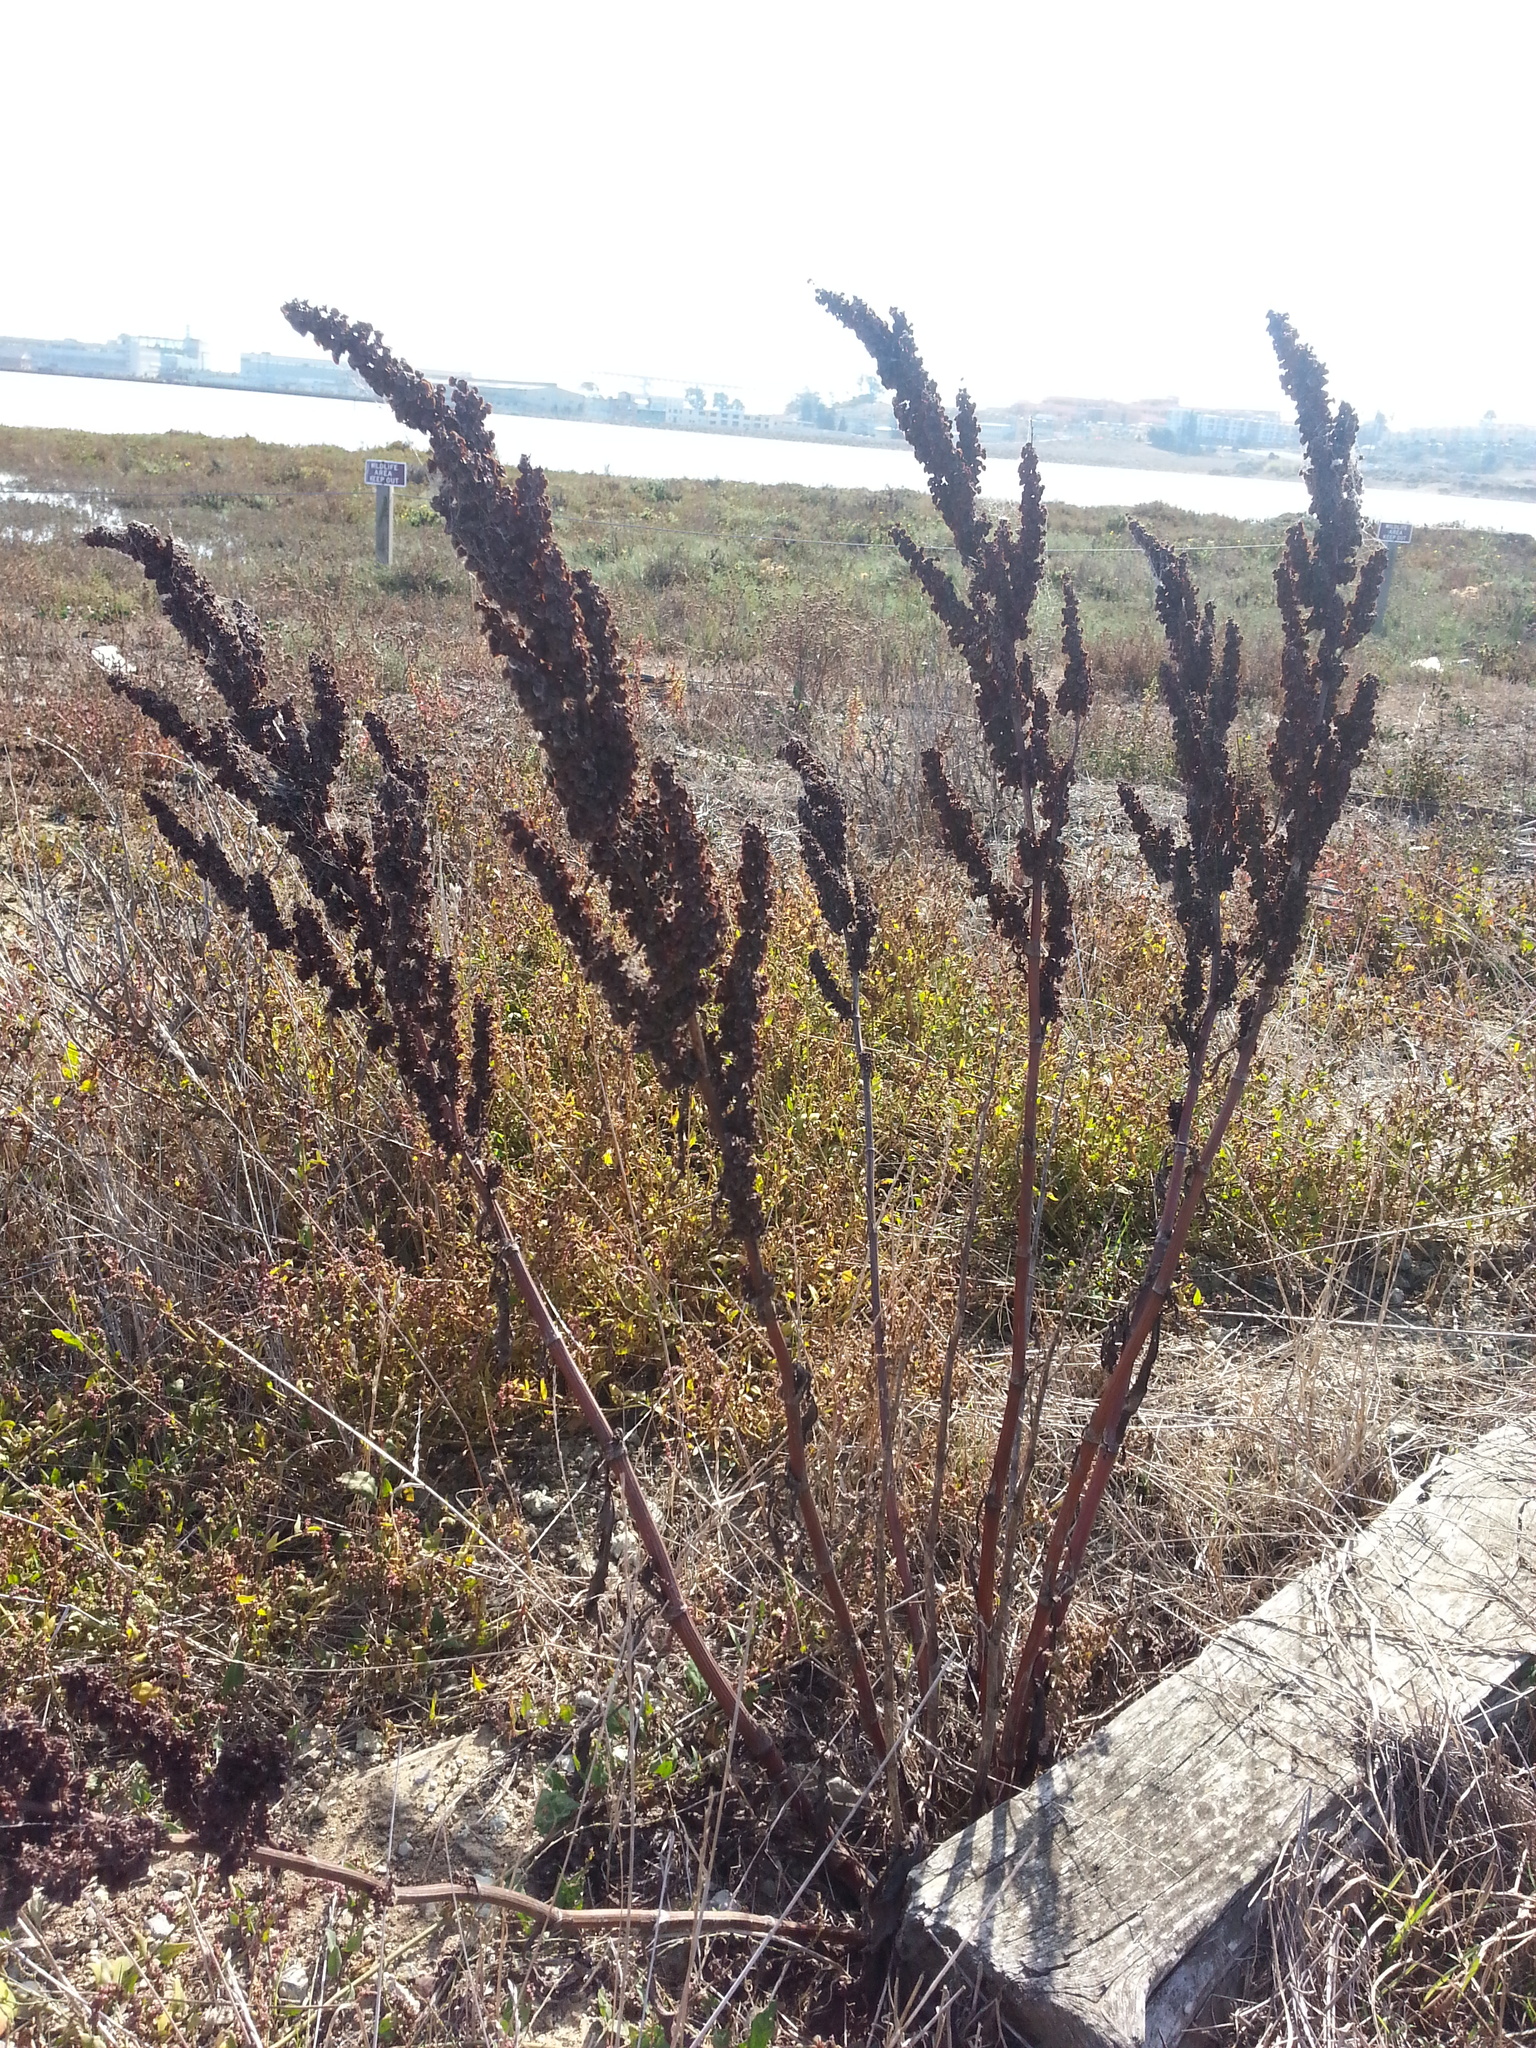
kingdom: Plantae
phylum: Tracheophyta
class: Magnoliopsida
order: Caryophyllales
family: Polygonaceae
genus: Rumex
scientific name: Rumex crispus
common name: Curled dock
